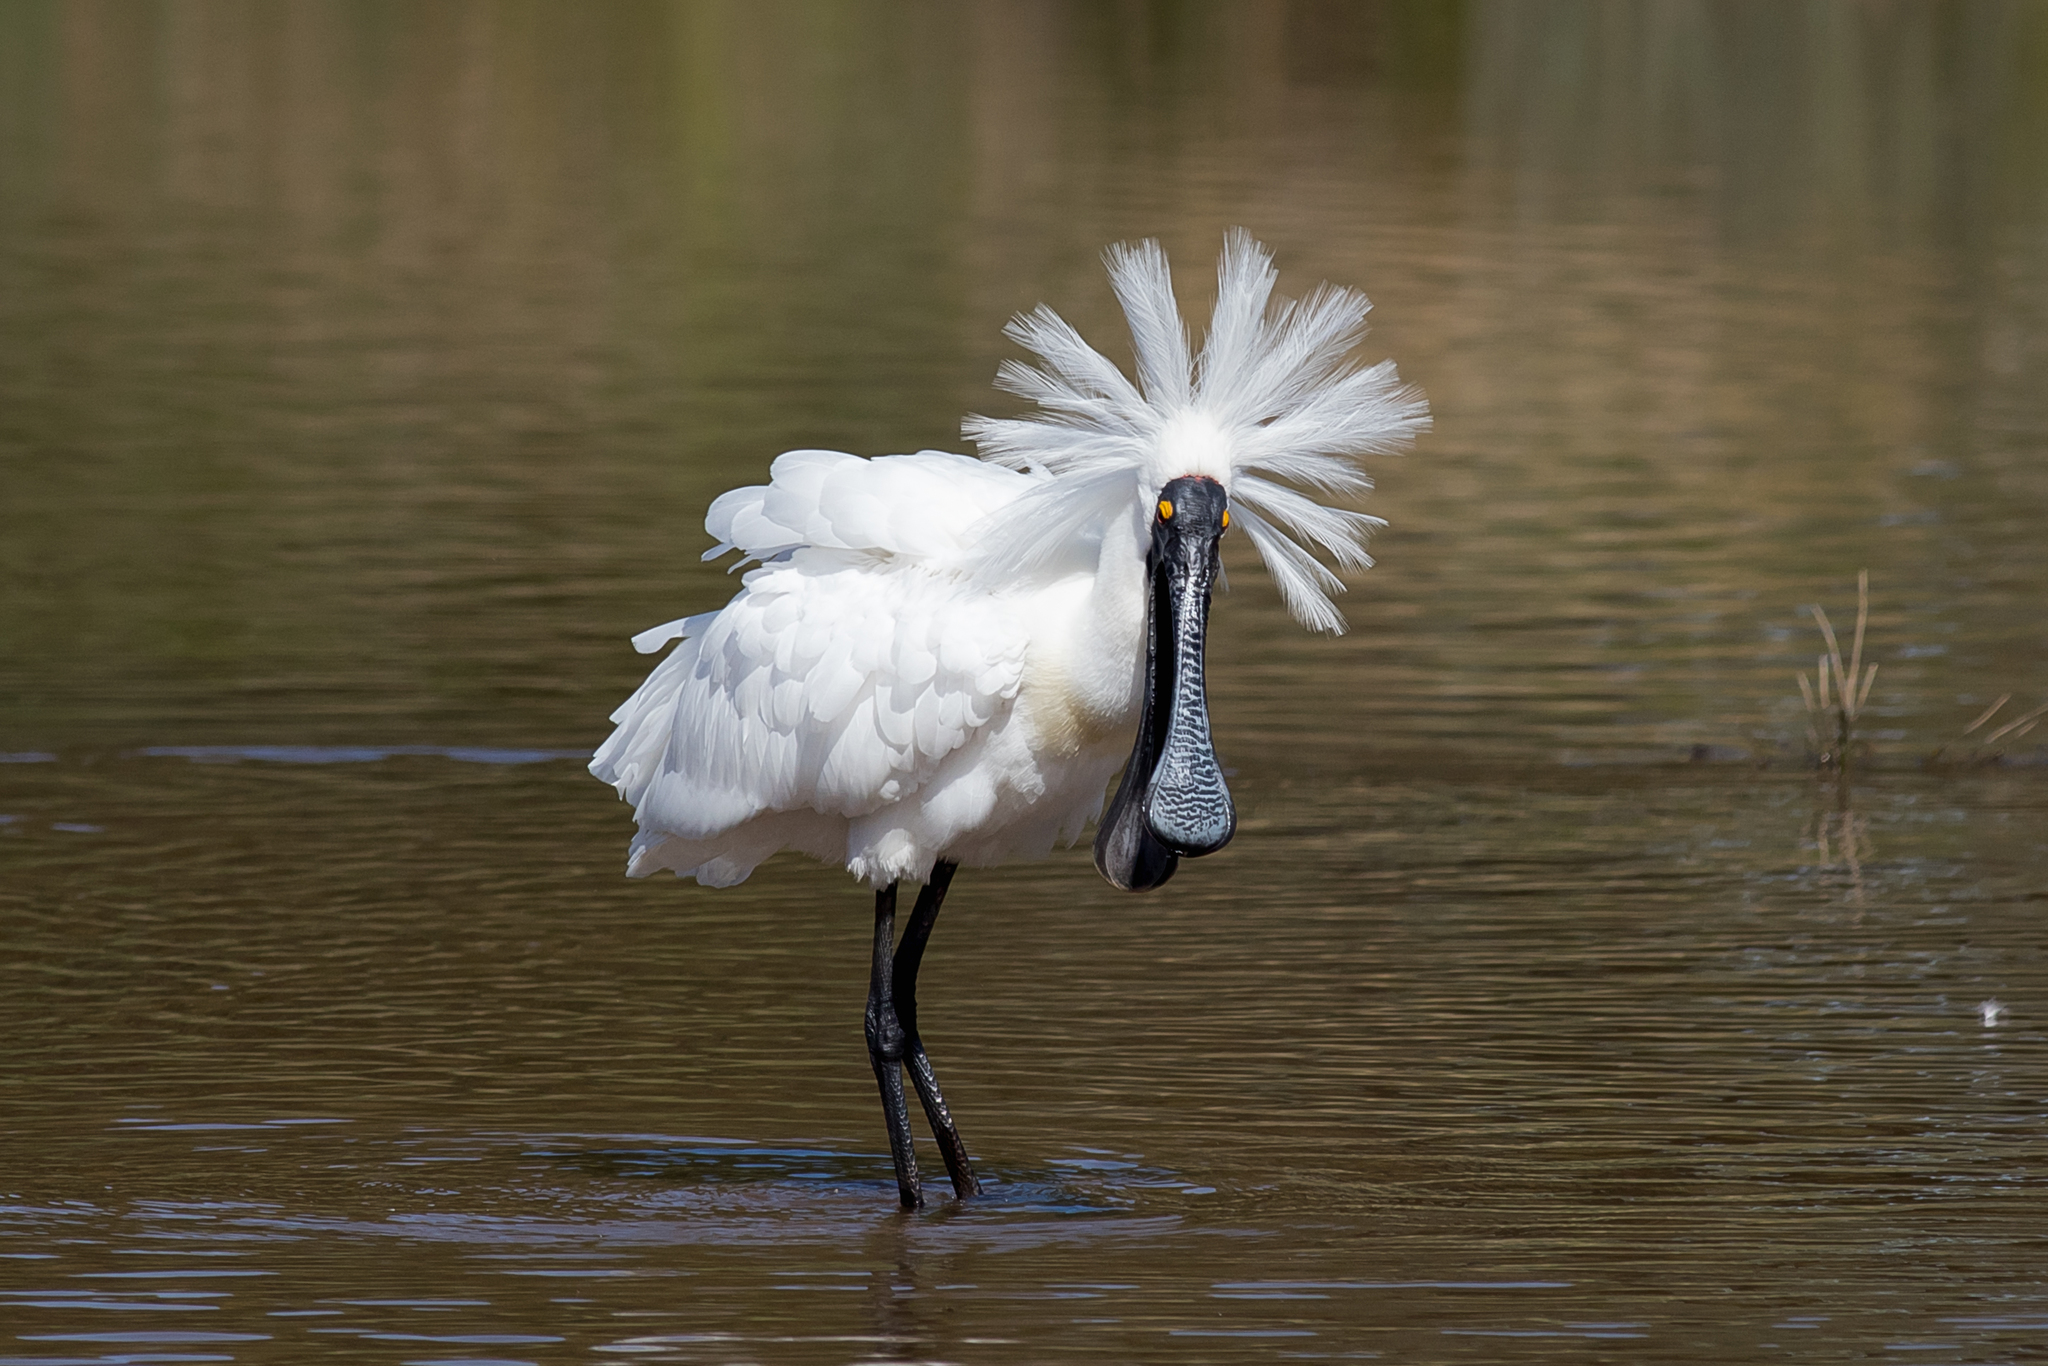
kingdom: Animalia
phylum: Chordata
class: Aves
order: Pelecaniformes
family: Threskiornithidae
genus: Platalea
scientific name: Platalea regia
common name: Royal spoonbill
